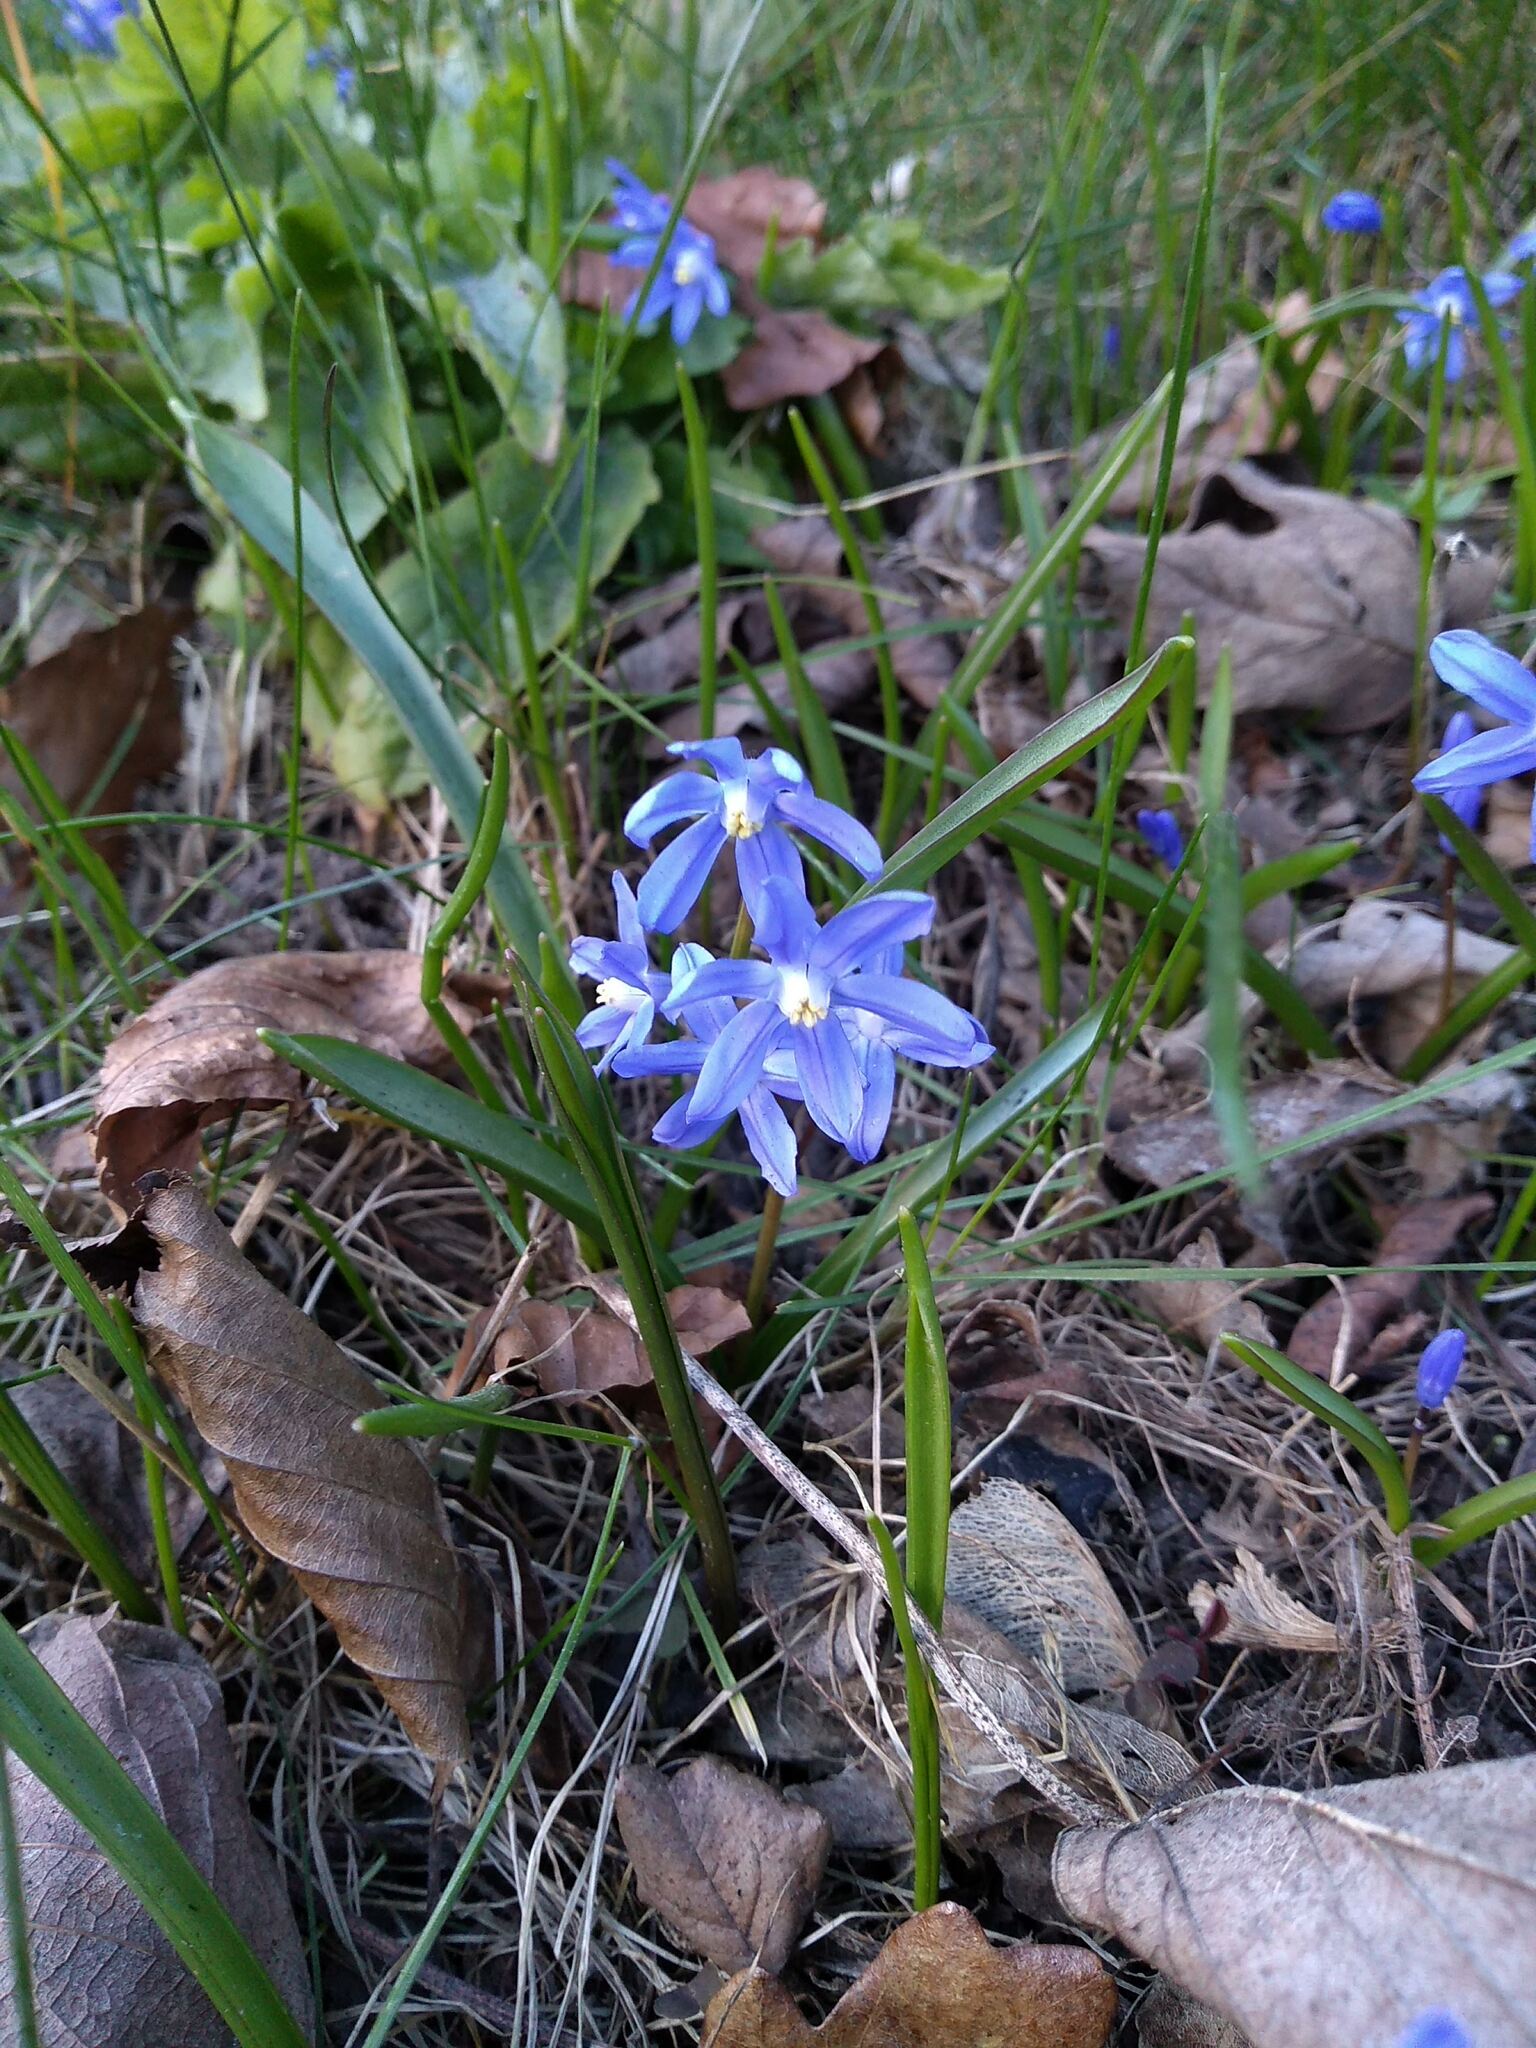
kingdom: Plantae
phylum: Tracheophyta
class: Liliopsida
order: Asparagales
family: Asparagaceae
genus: Scilla
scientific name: Scilla sardensis
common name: Lesser glory-of-the-snow
